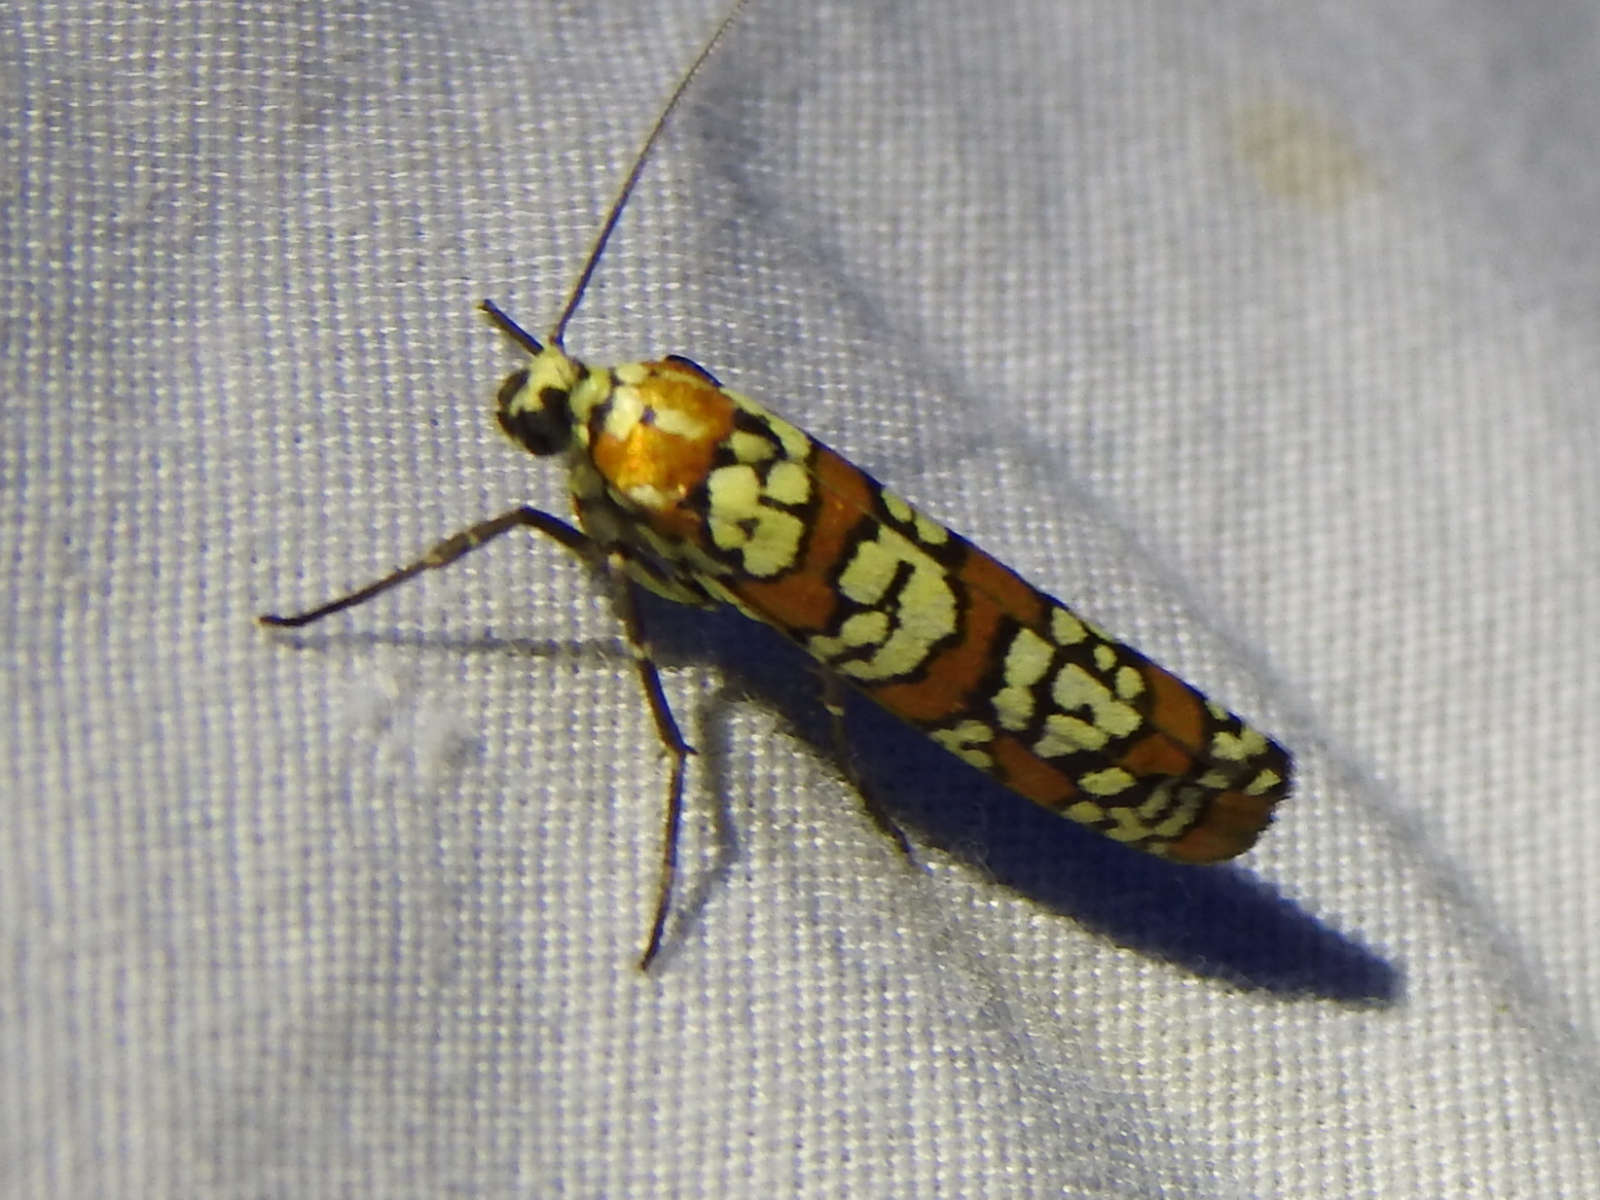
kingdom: Animalia
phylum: Arthropoda
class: Insecta
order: Lepidoptera
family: Attevidae
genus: Atteva
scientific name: Atteva punctella
